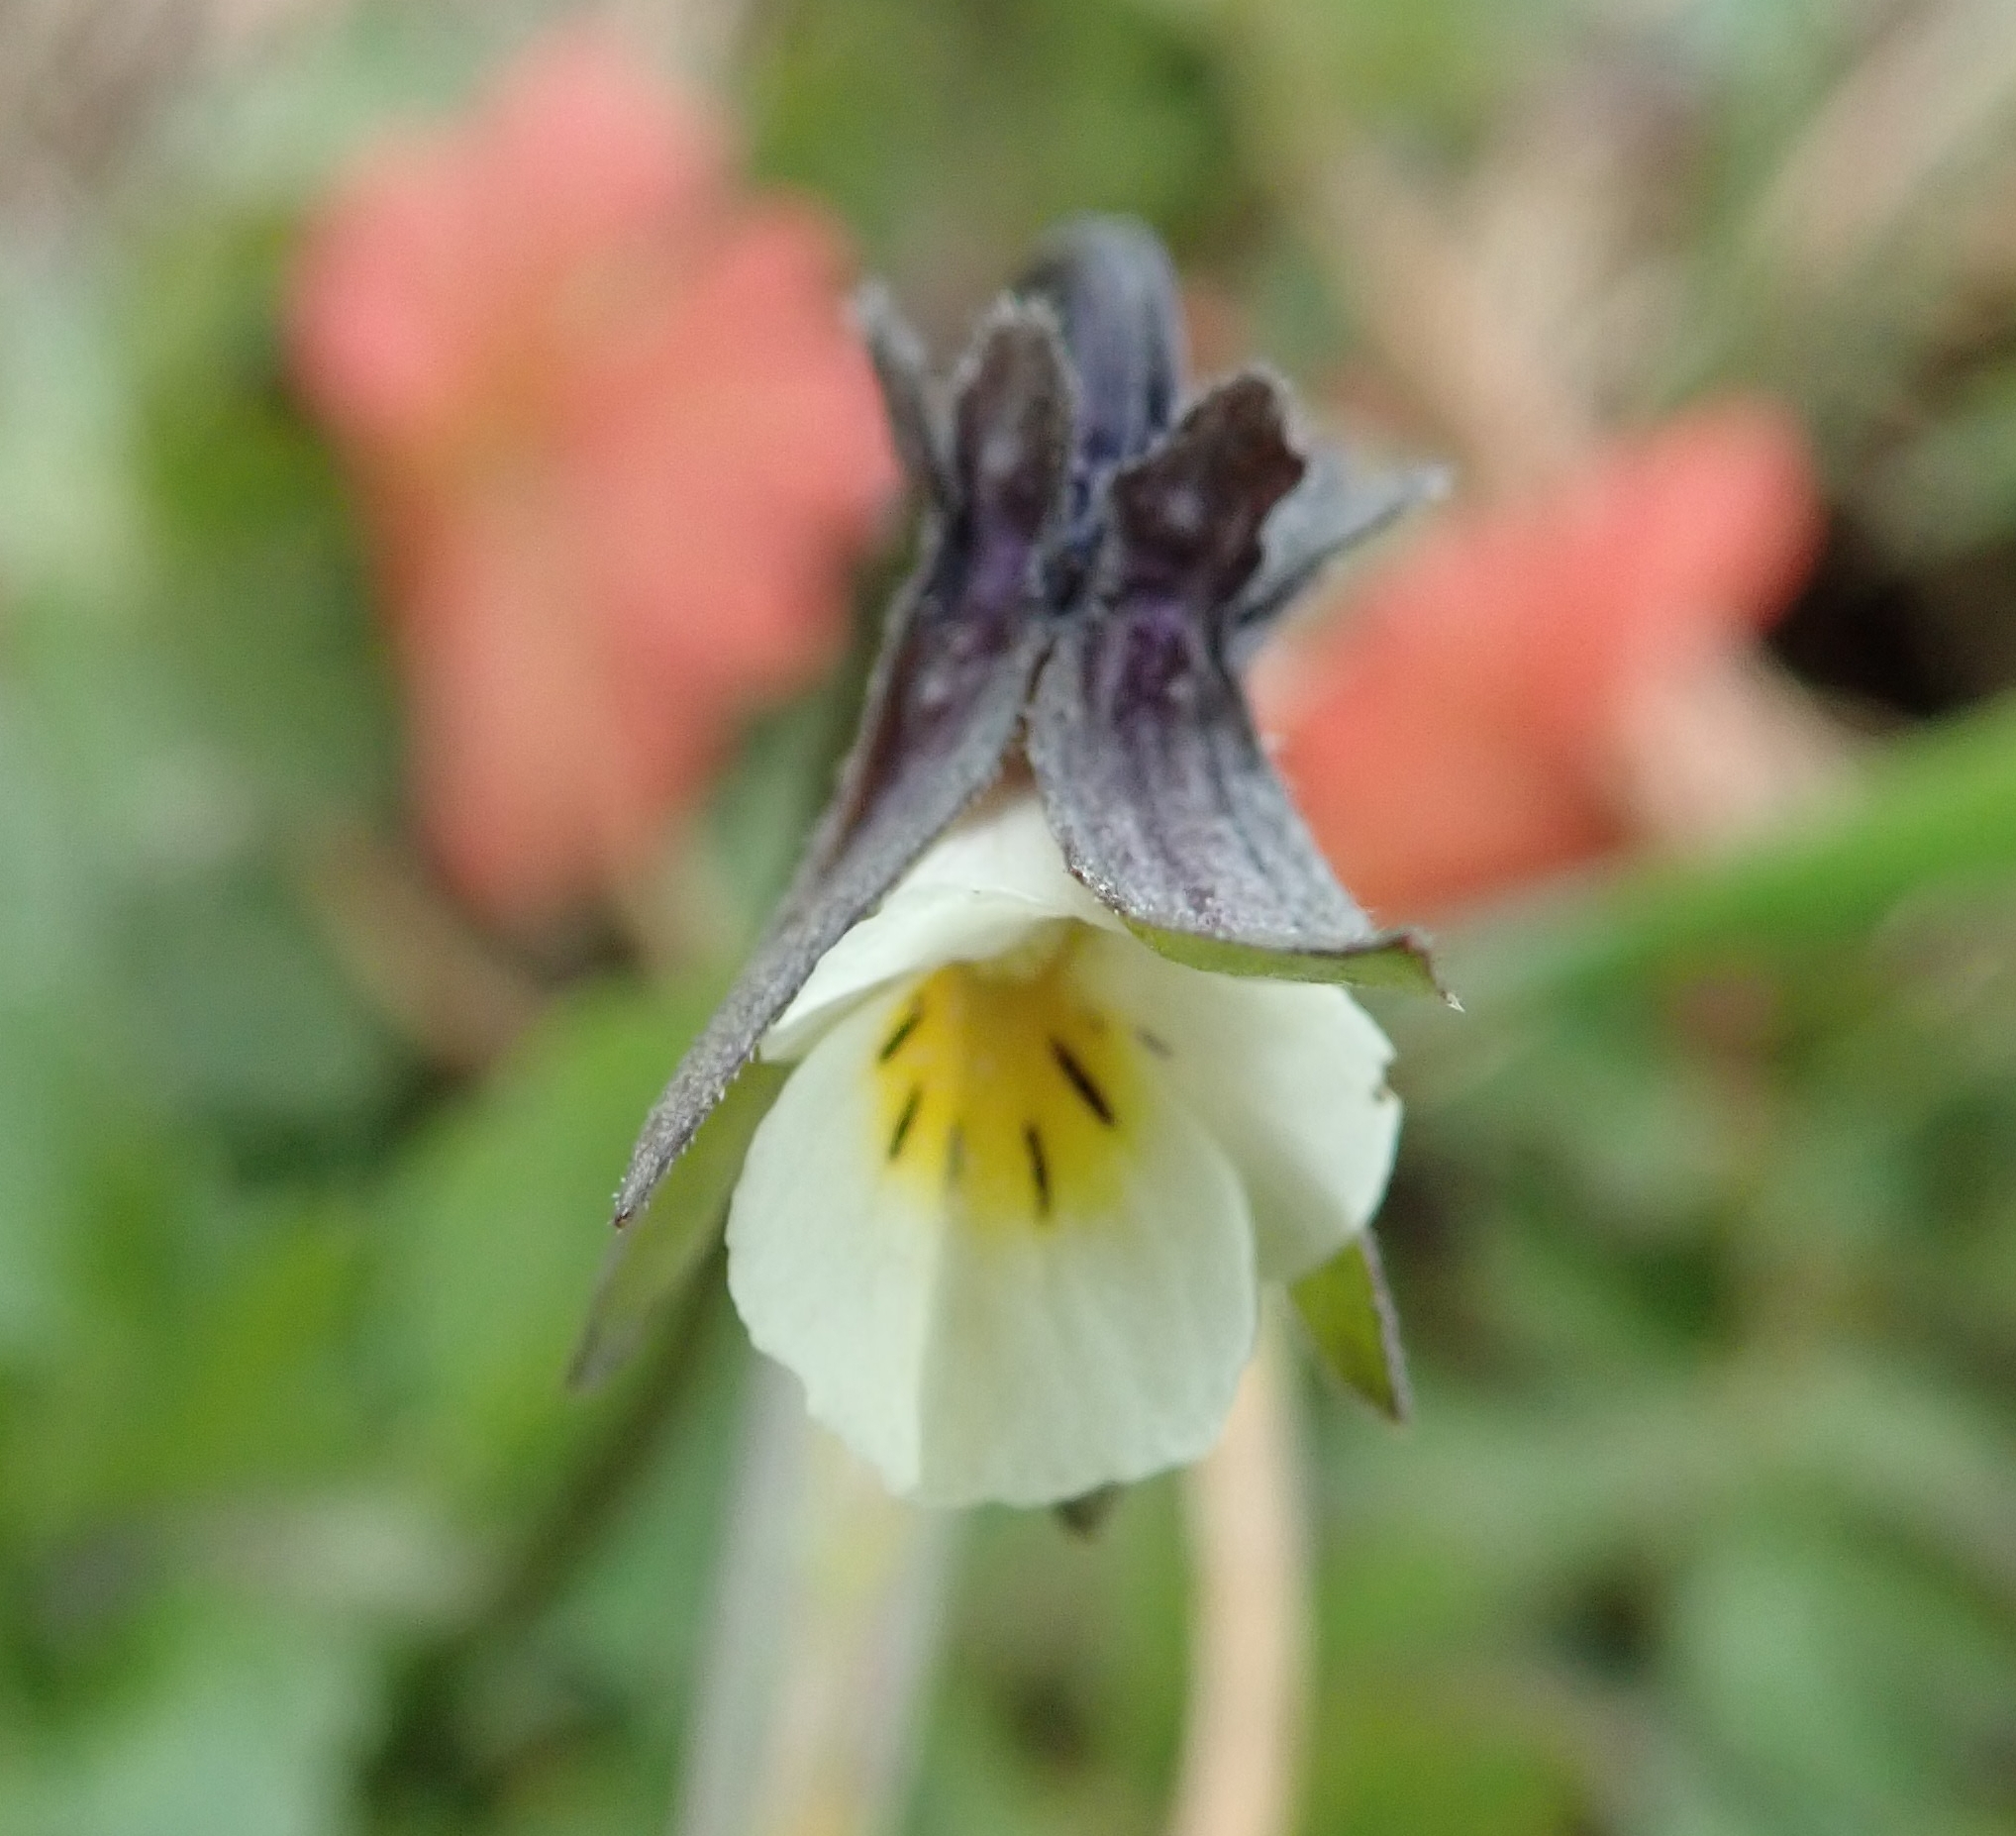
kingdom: Plantae
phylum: Tracheophyta
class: Magnoliopsida
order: Malpighiales
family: Violaceae
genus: Viola
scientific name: Viola arvensis
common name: Field pansy
